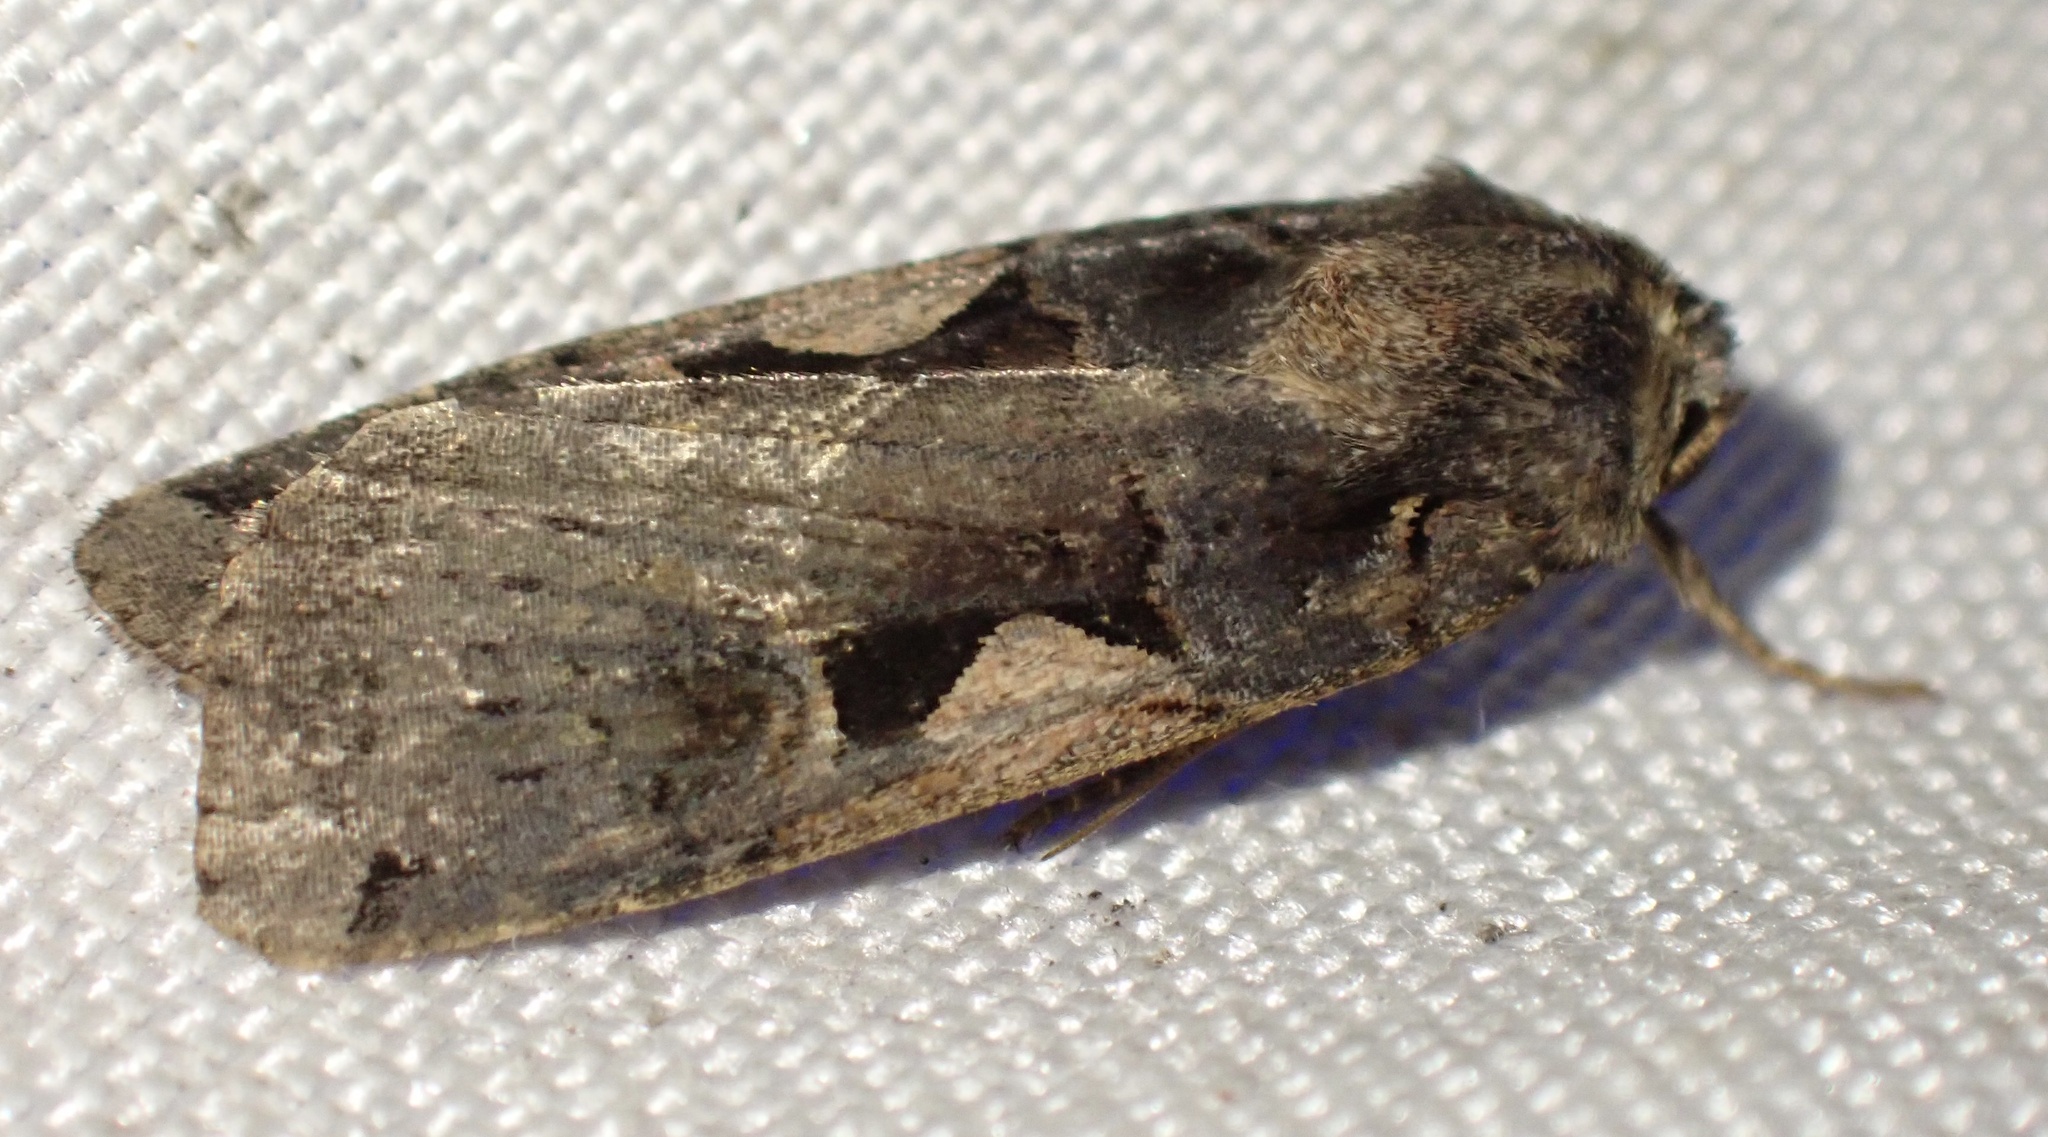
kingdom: Animalia
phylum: Arthropoda
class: Insecta
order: Lepidoptera
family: Noctuidae
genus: Xestia
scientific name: Xestia c-nigrum
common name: Setaceous hebrew character
